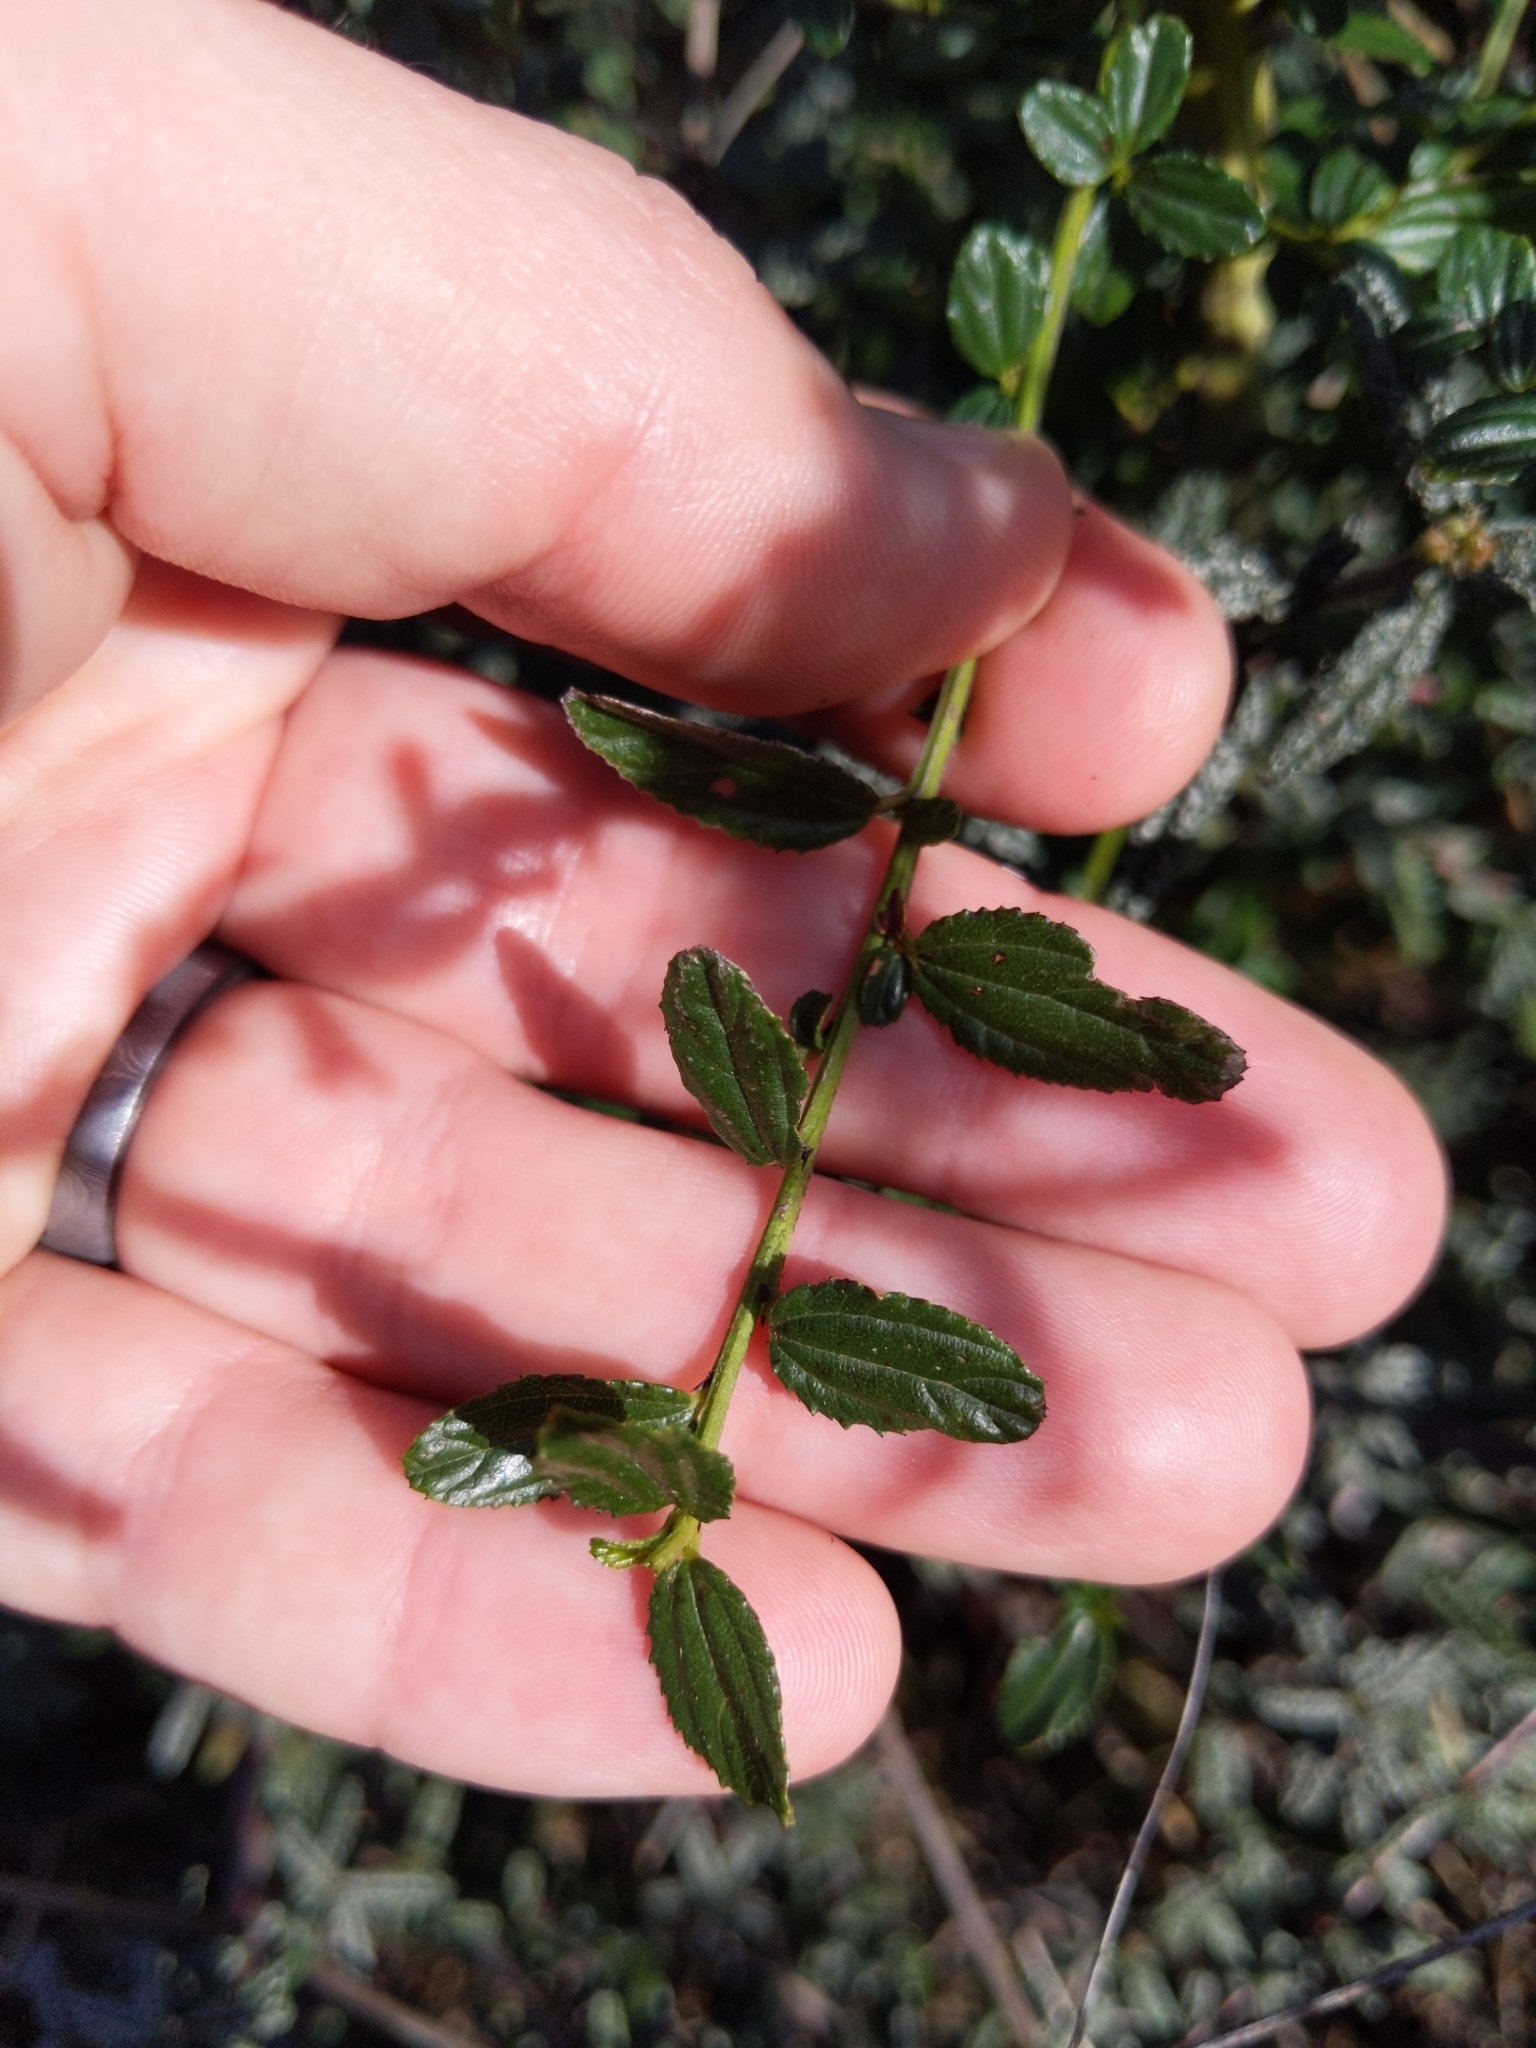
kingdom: Plantae
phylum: Tracheophyta
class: Magnoliopsida
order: Rosales
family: Rhamnaceae
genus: Ceanothus
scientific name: Ceanothus thyrsiflorus
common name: California-lilac
